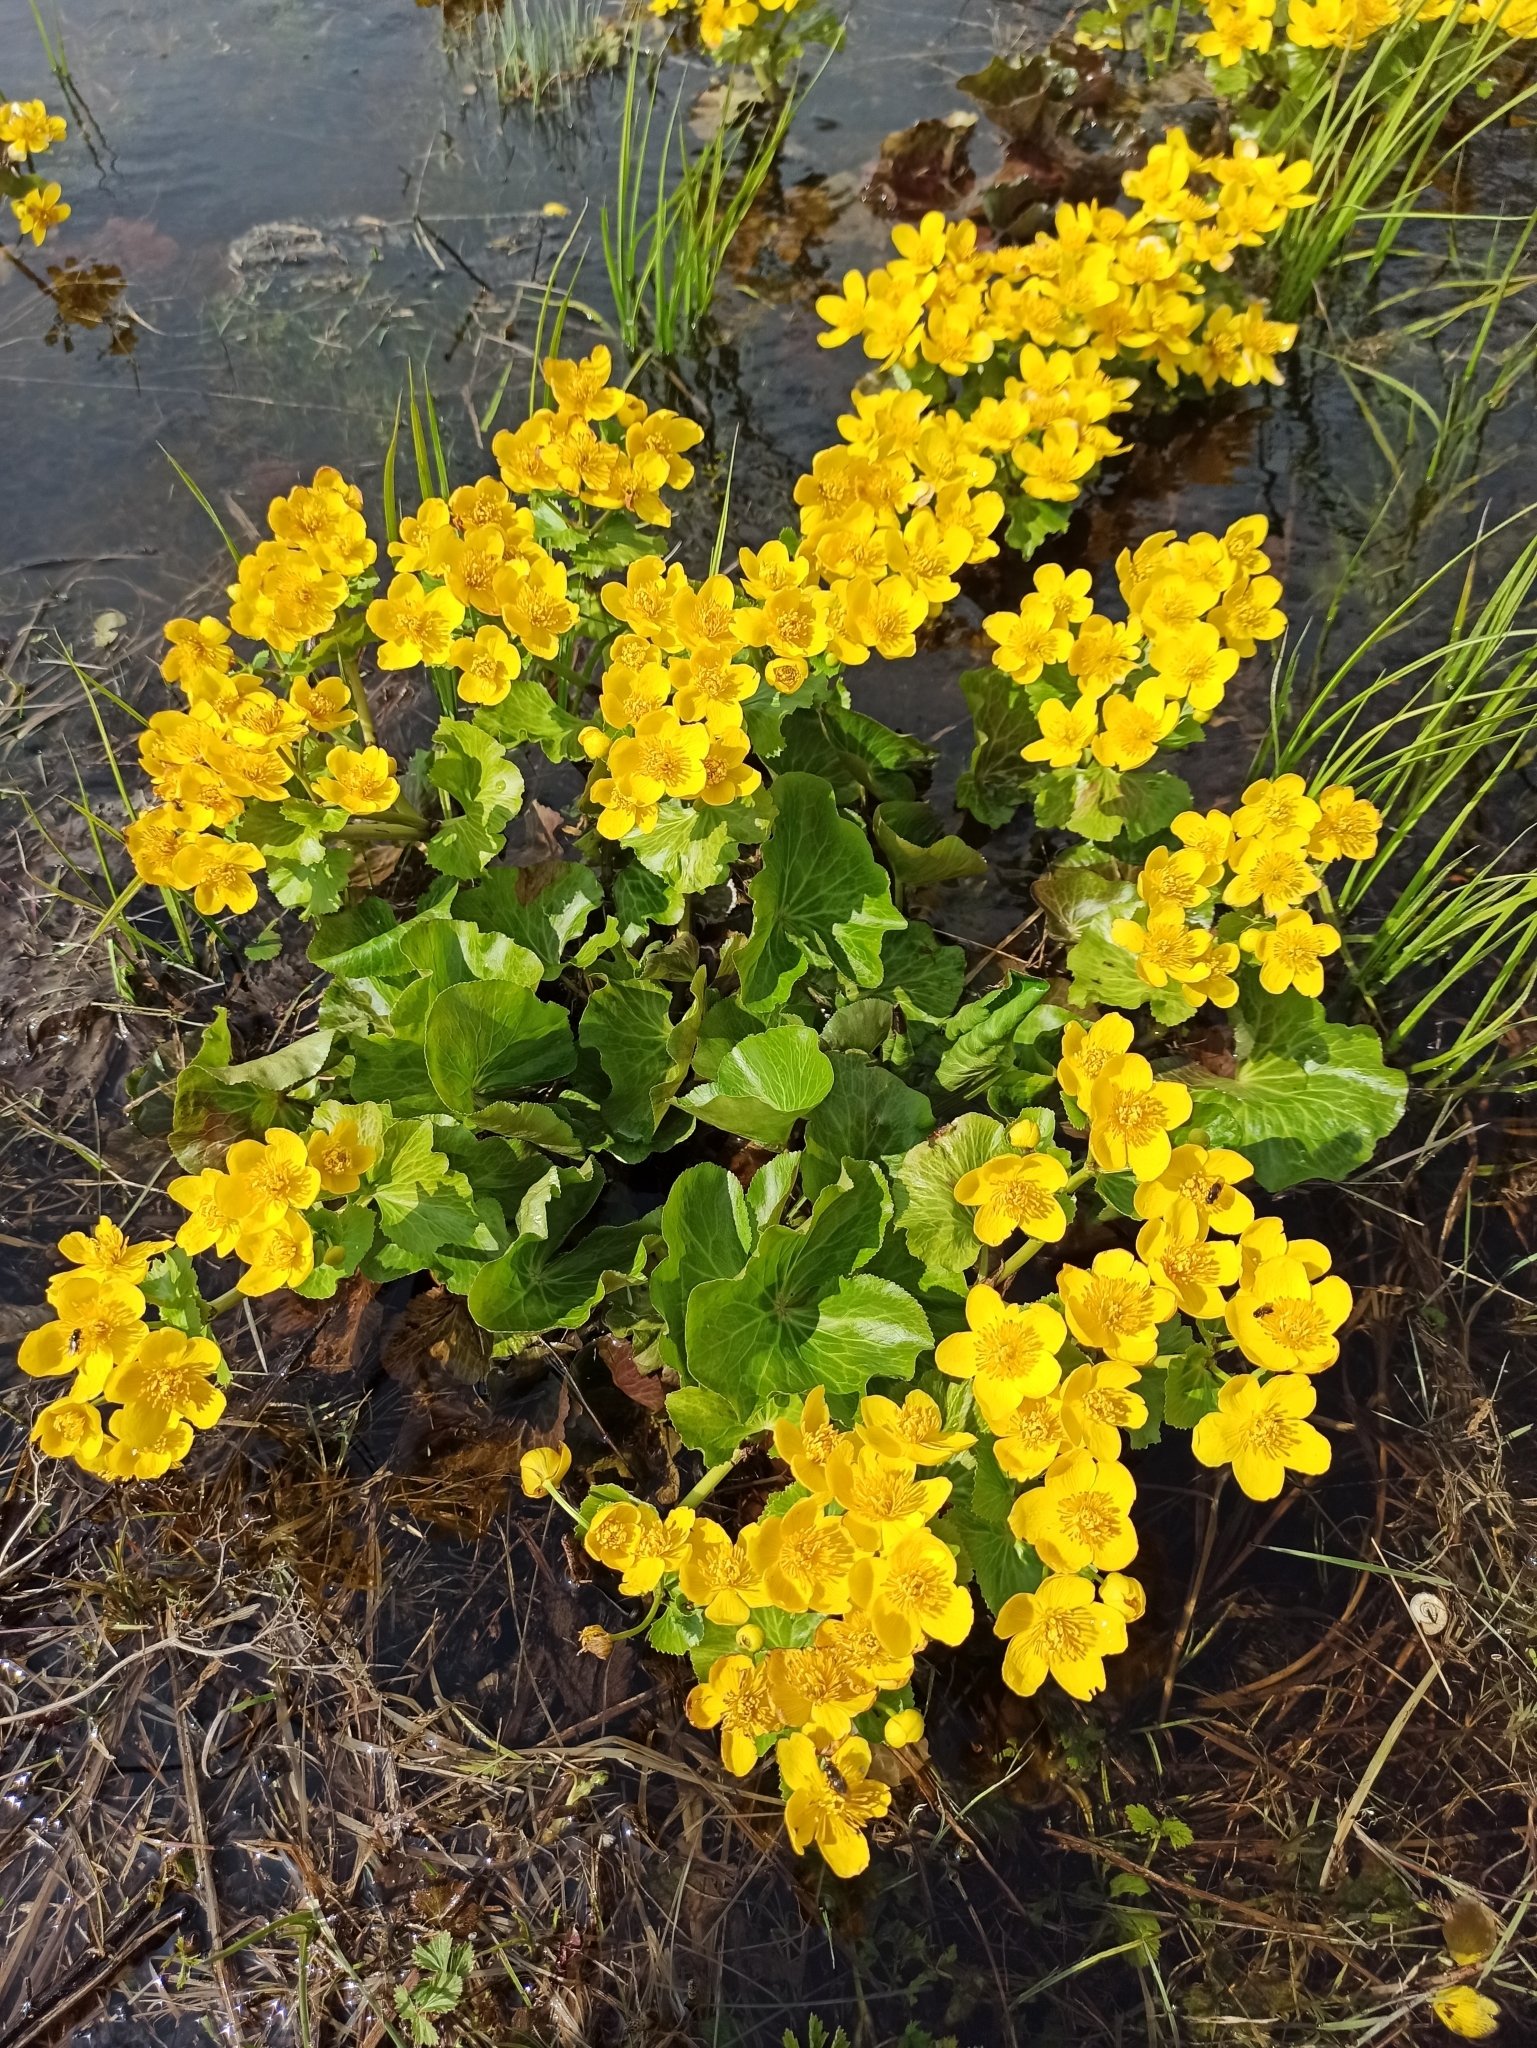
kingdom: Plantae
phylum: Tracheophyta
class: Magnoliopsida
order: Ranunculales
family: Ranunculaceae
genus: Caltha
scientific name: Caltha palustris
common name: Marsh marigold
